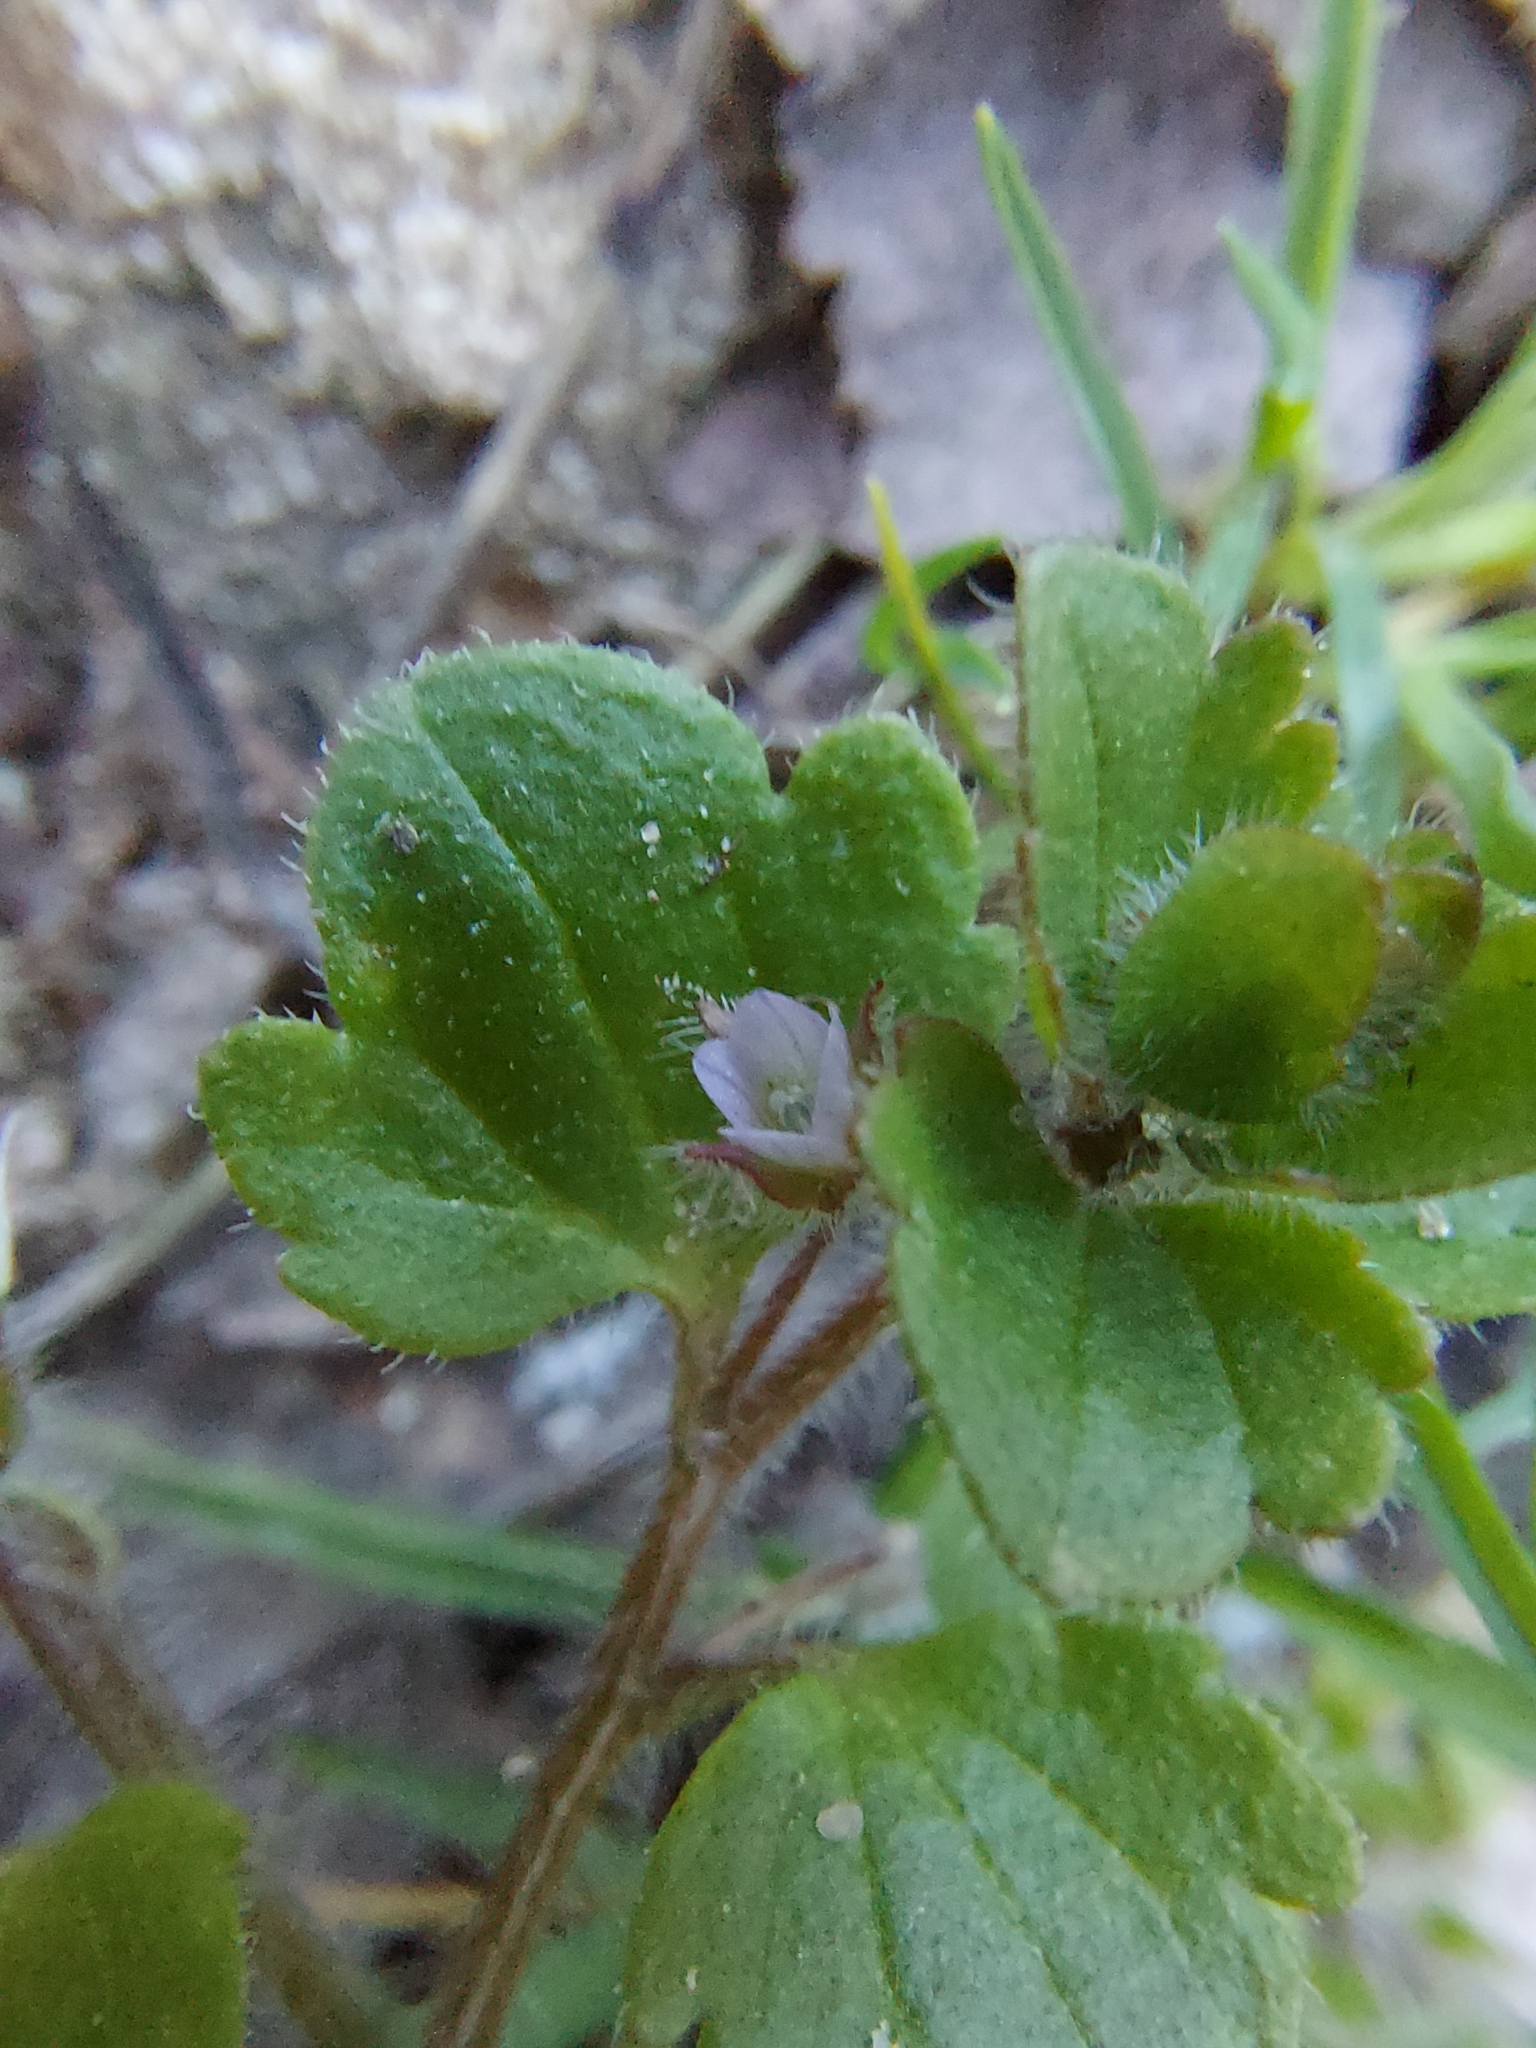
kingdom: Plantae
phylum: Tracheophyta
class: Magnoliopsida
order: Lamiales
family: Plantaginaceae
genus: Veronica
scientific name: Veronica sublobata
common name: False ivy-leaved speedwell
